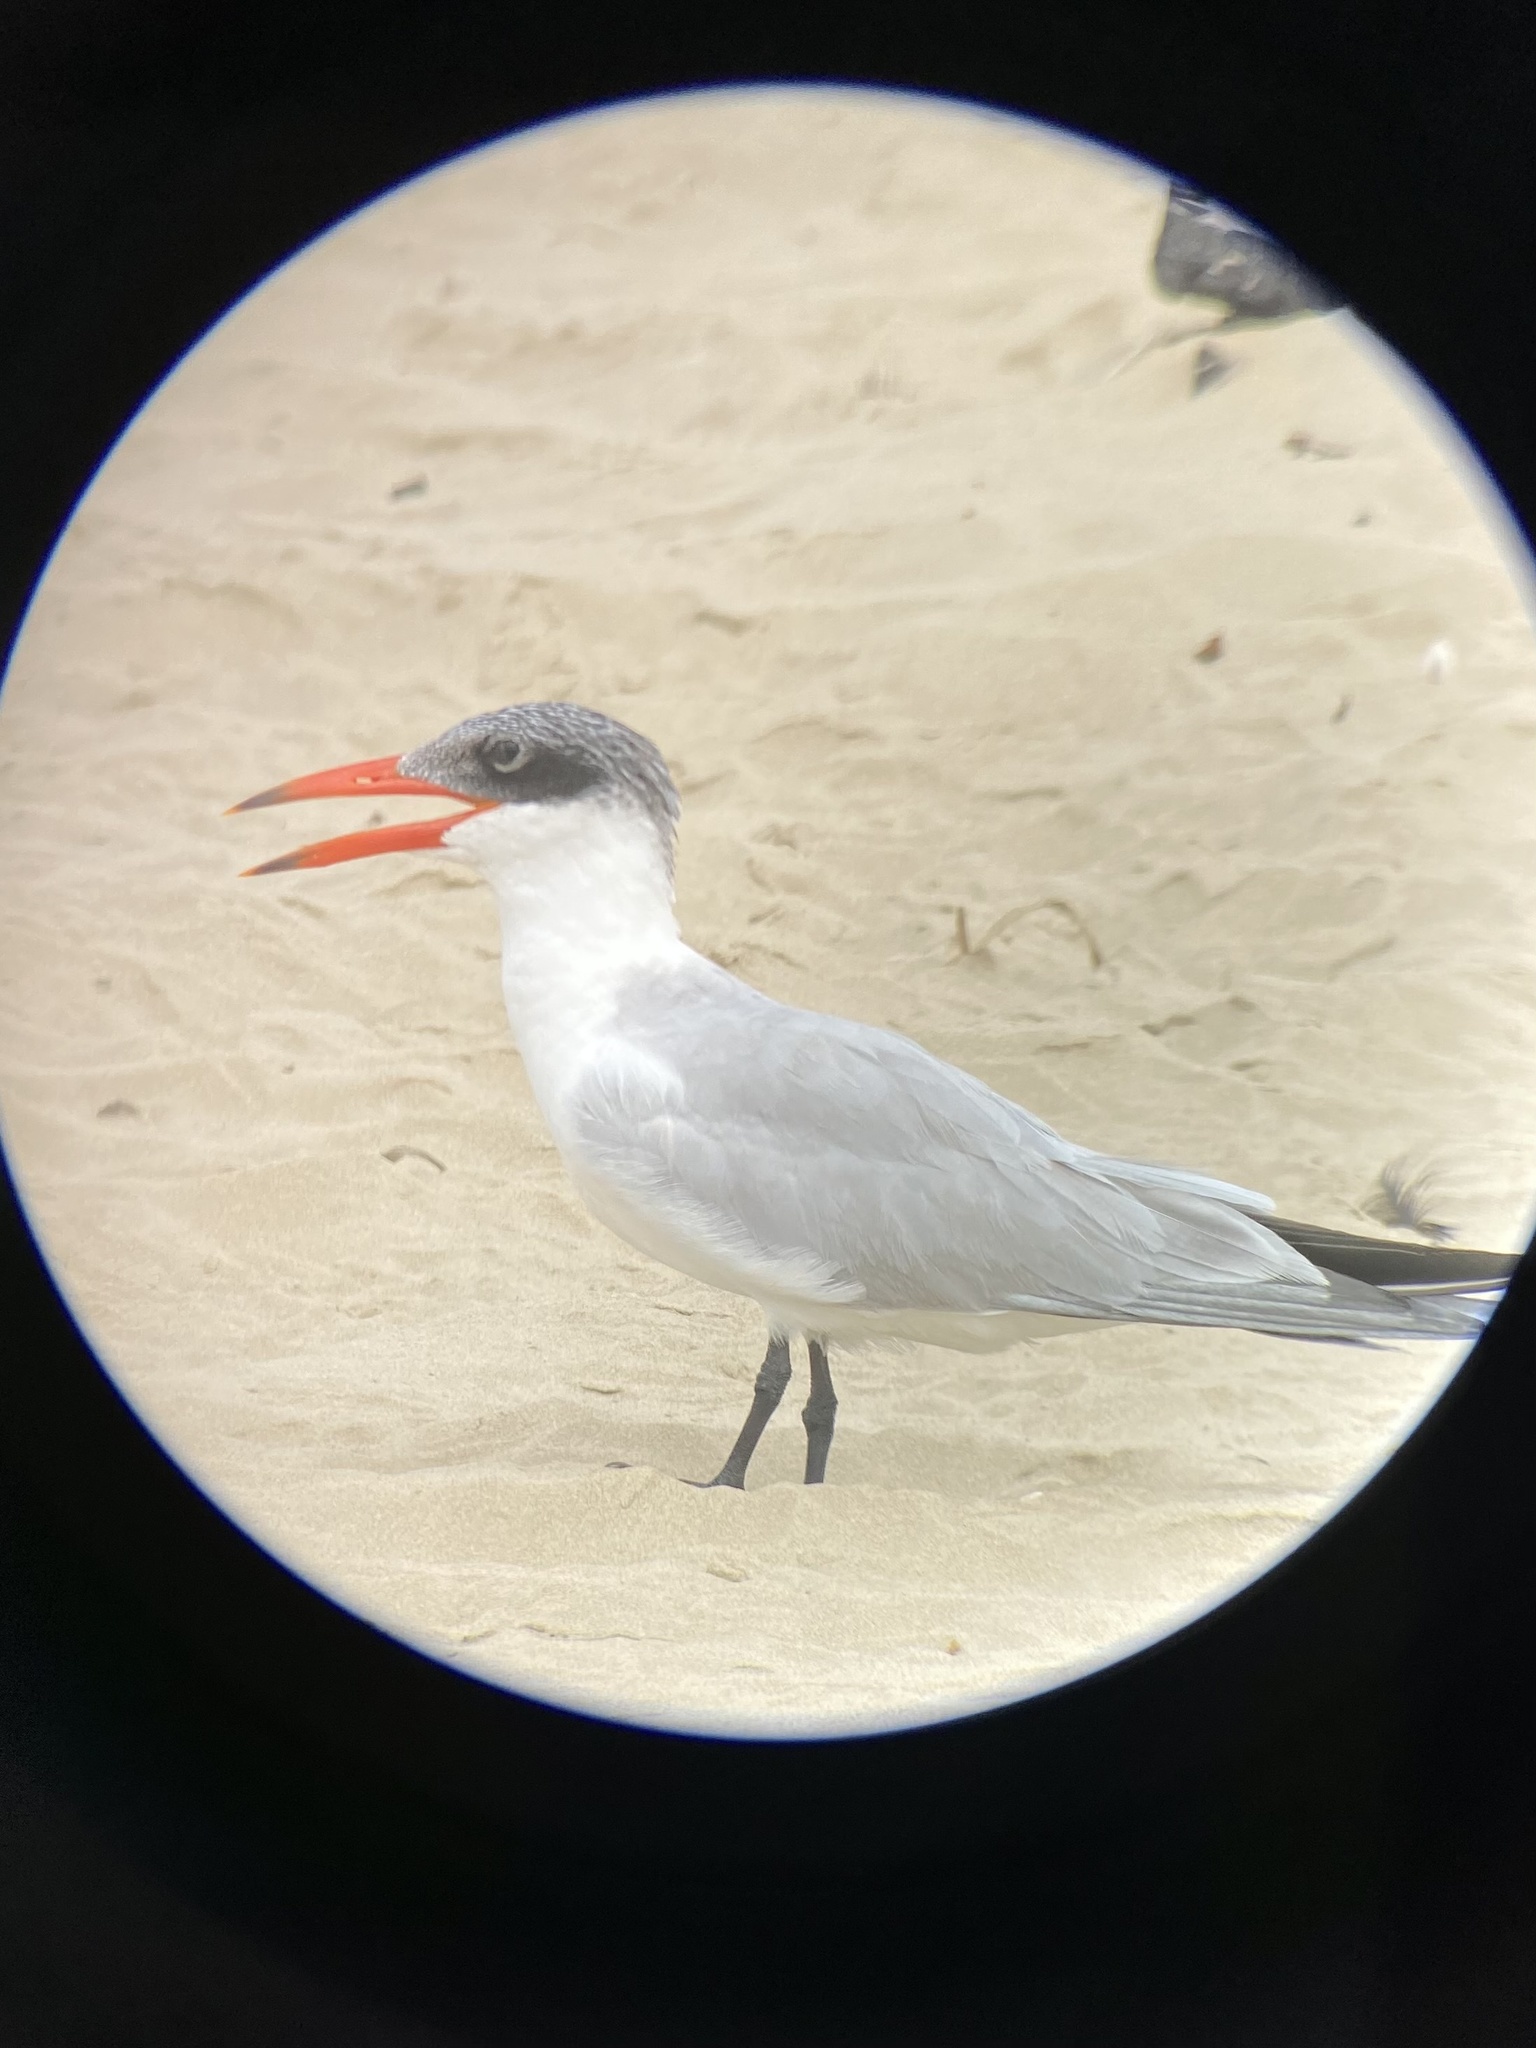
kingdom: Animalia
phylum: Chordata
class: Aves
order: Charadriiformes
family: Laridae
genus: Hydroprogne
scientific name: Hydroprogne caspia
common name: Caspian tern
